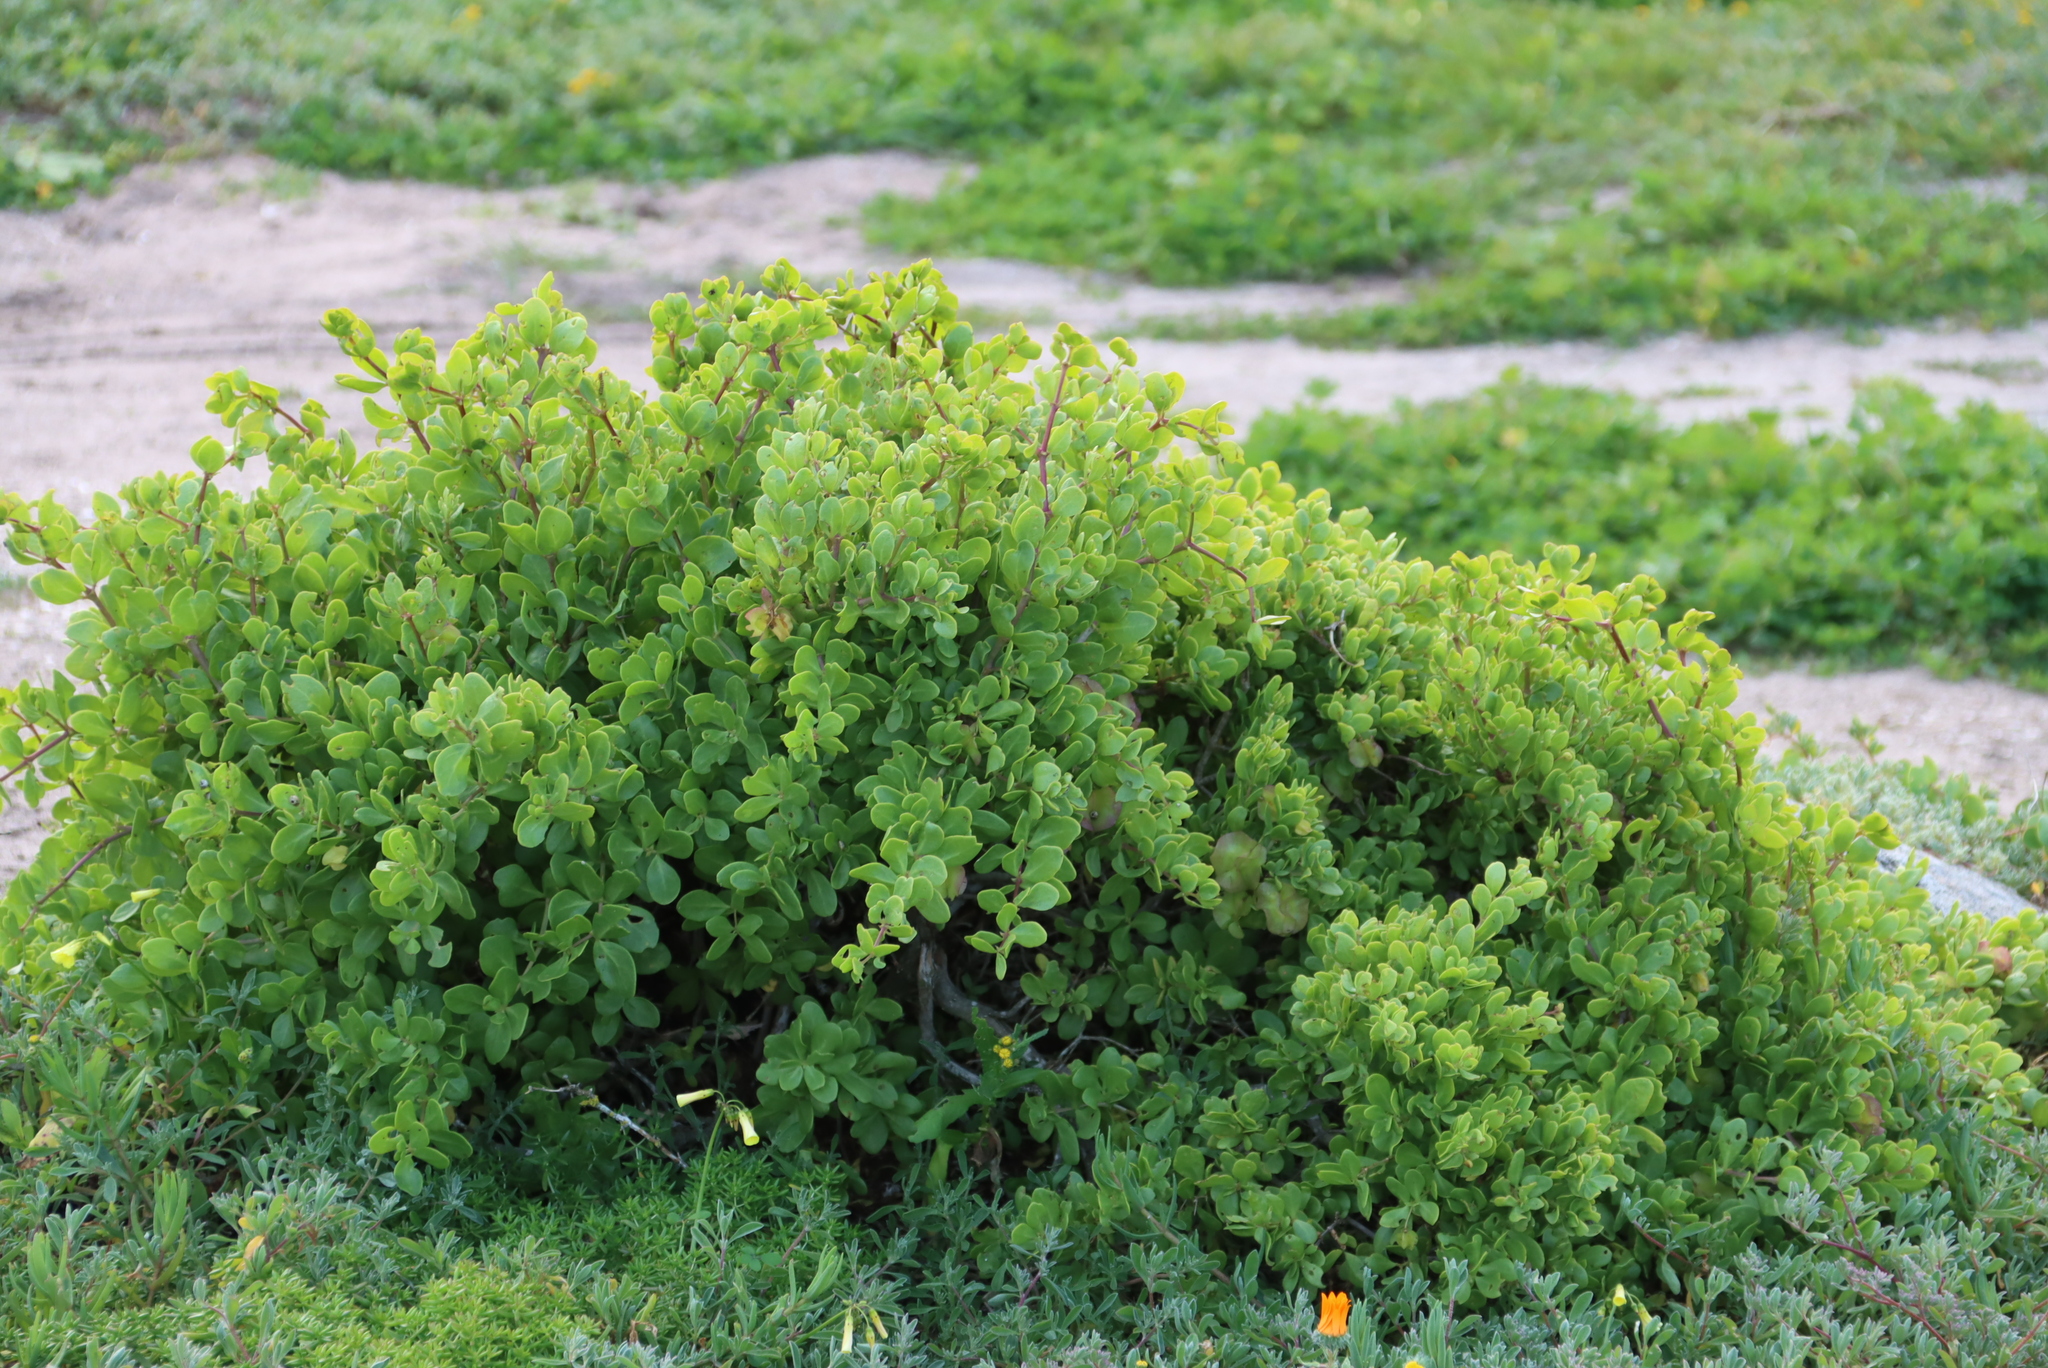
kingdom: Plantae
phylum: Tracheophyta
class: Magnoliopsida
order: Zygophyllales
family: Zygophyllaceae
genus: Roepera
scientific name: Roepera morgsana
